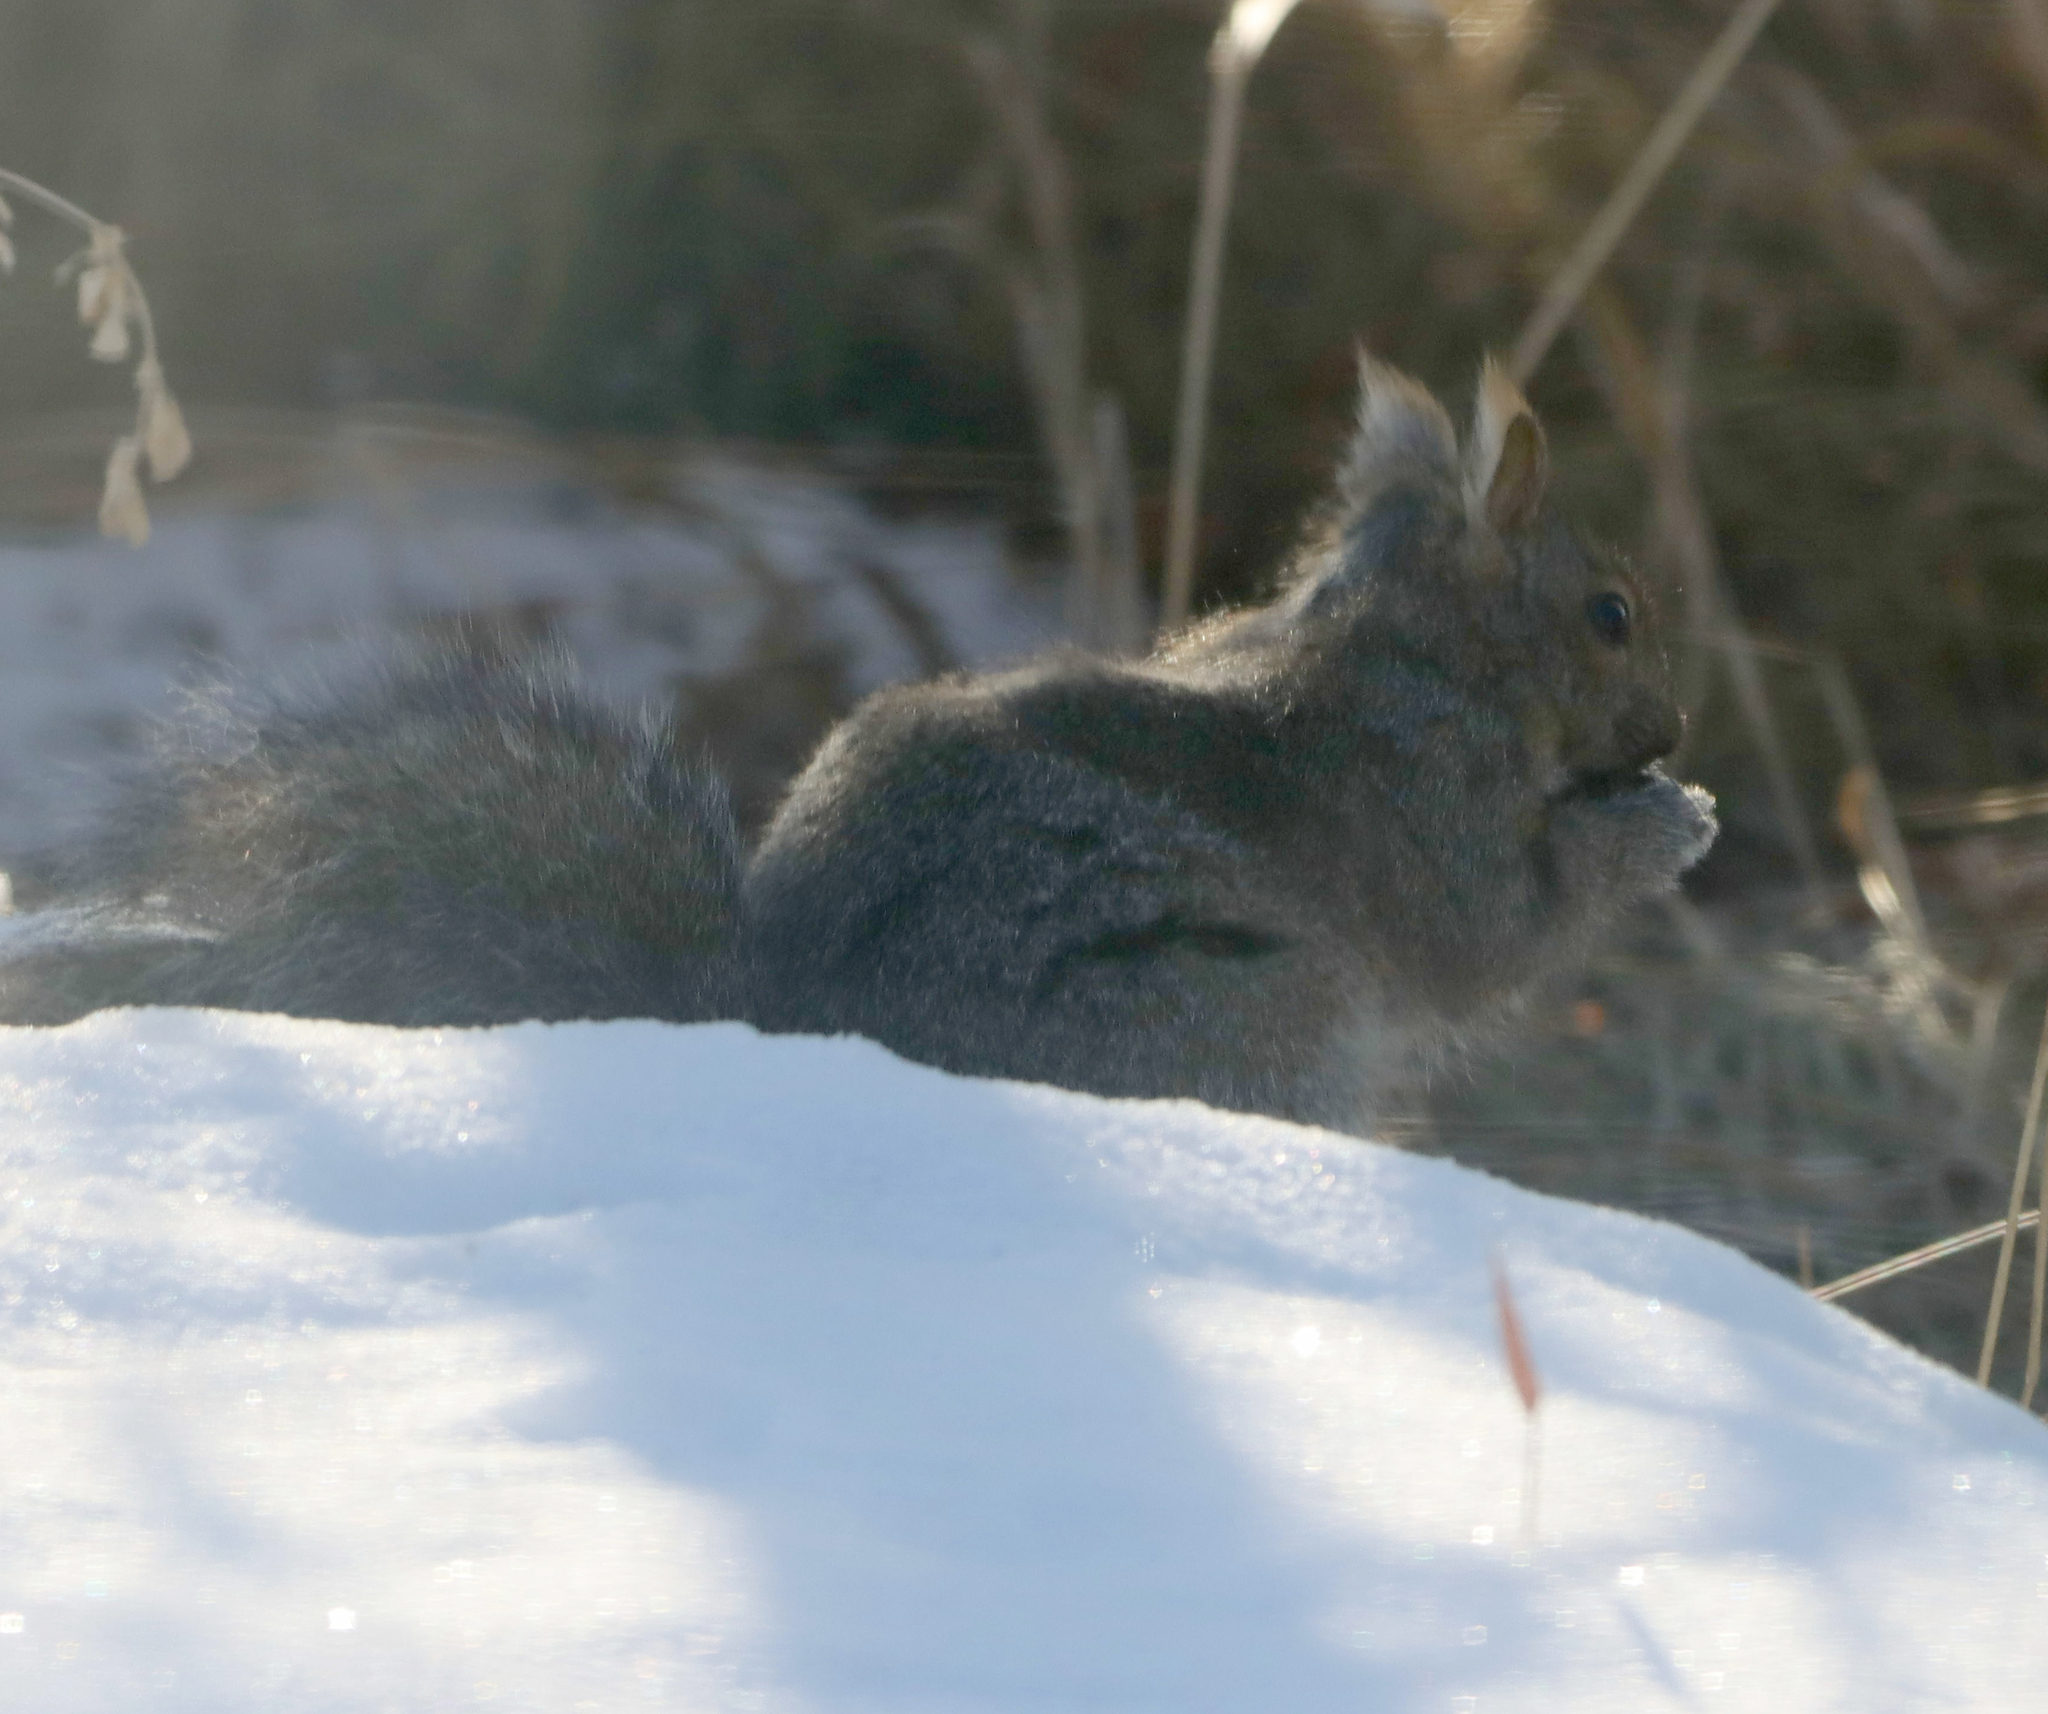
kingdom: Animalia
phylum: Chordata
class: Mammalia
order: Rodentia
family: Sciuridae
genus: Sciurus
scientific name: Sciurus carolinensis
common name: Eastern gray squirrel
